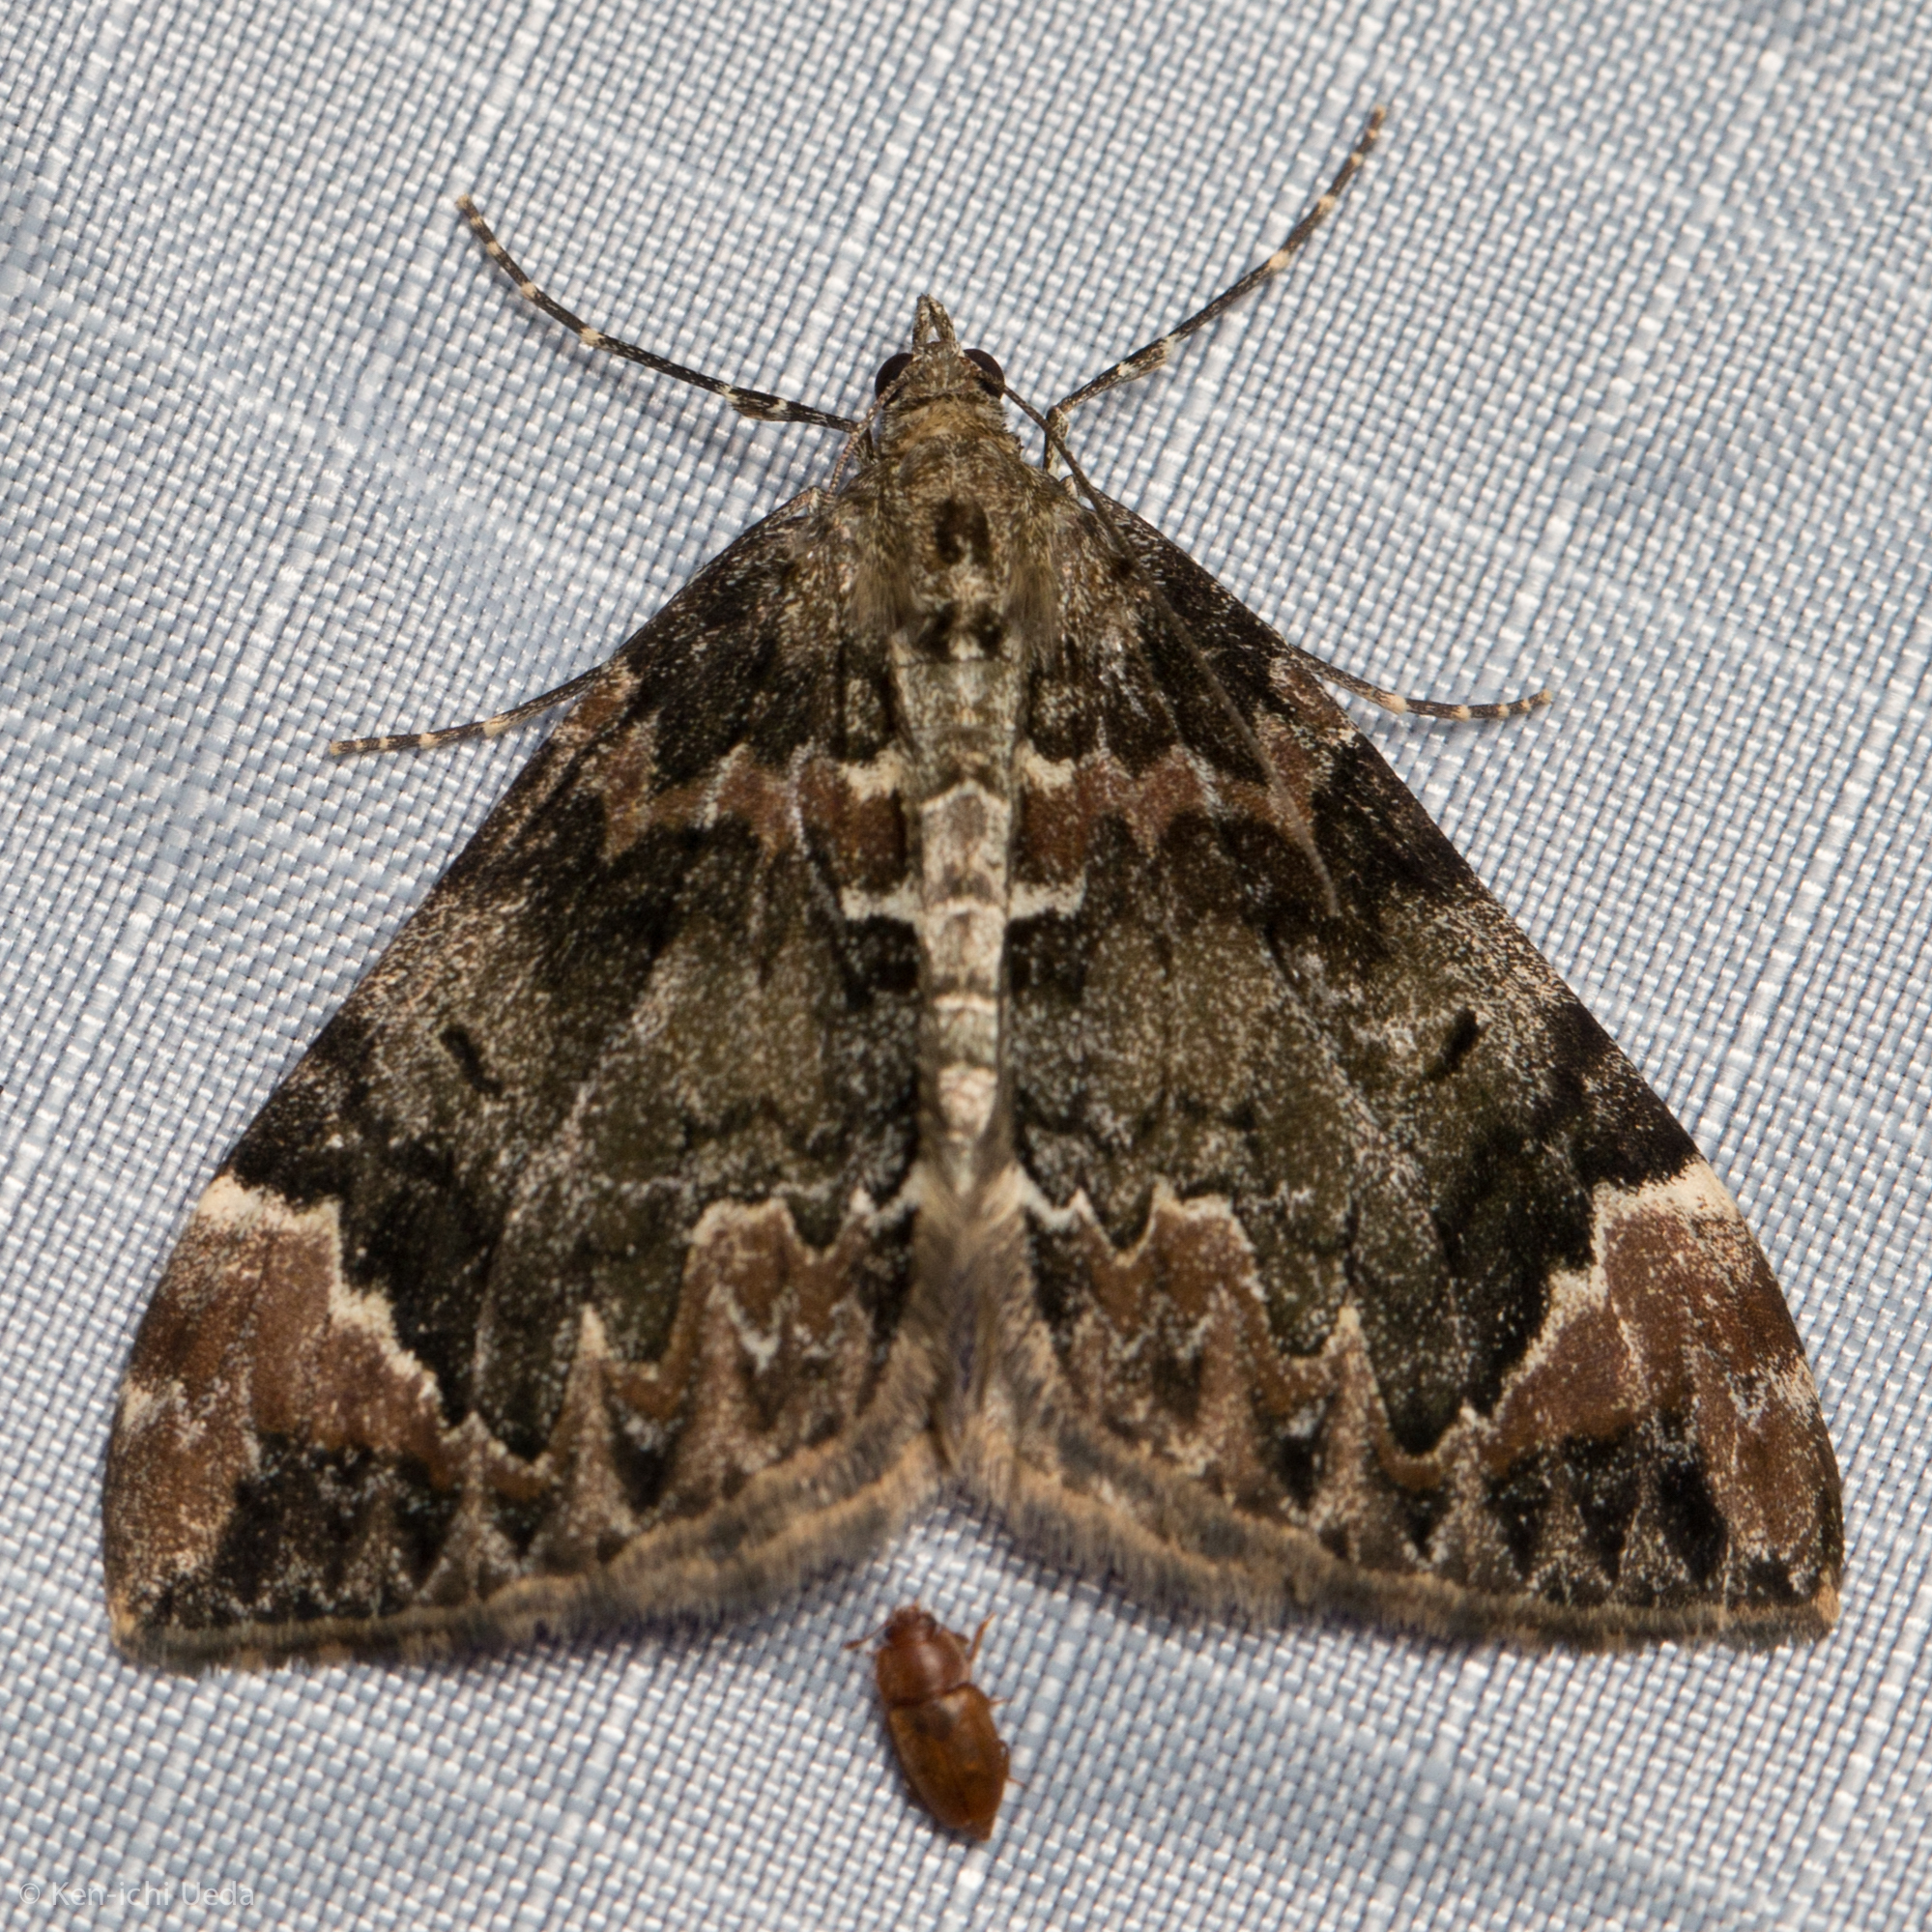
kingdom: Animalia
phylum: Arthropoda
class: Insecta
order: Lepidoptera
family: Geometridae
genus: Dysstroma
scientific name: Dysstroma citrata
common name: Dark marbled carpet
